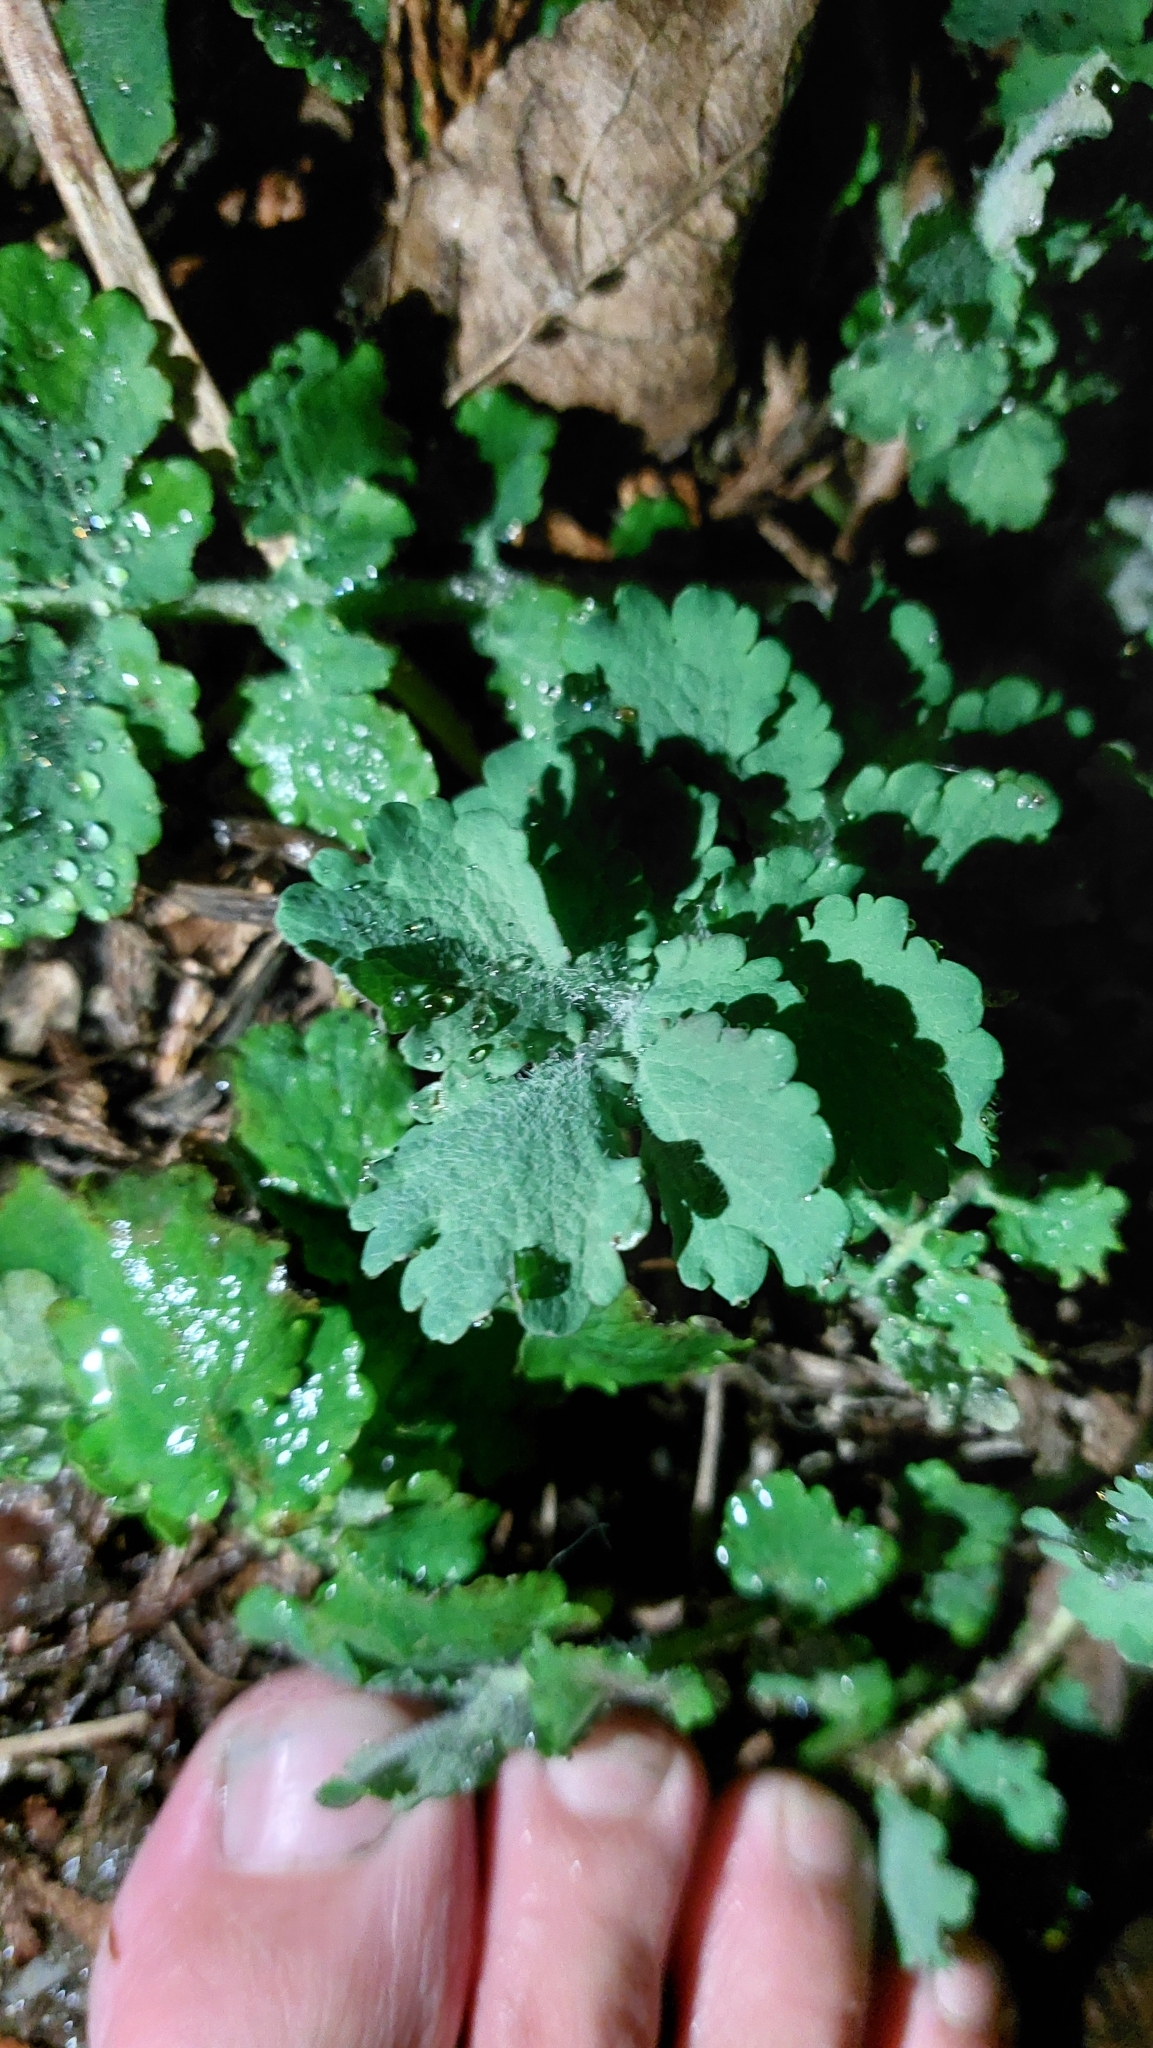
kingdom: Plantae
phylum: Tracheophyta
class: Magnoliopsida
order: Ranunculales
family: Papaveraceae
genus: Chelidonium
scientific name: Chelidonium majus
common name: Greater celandine
